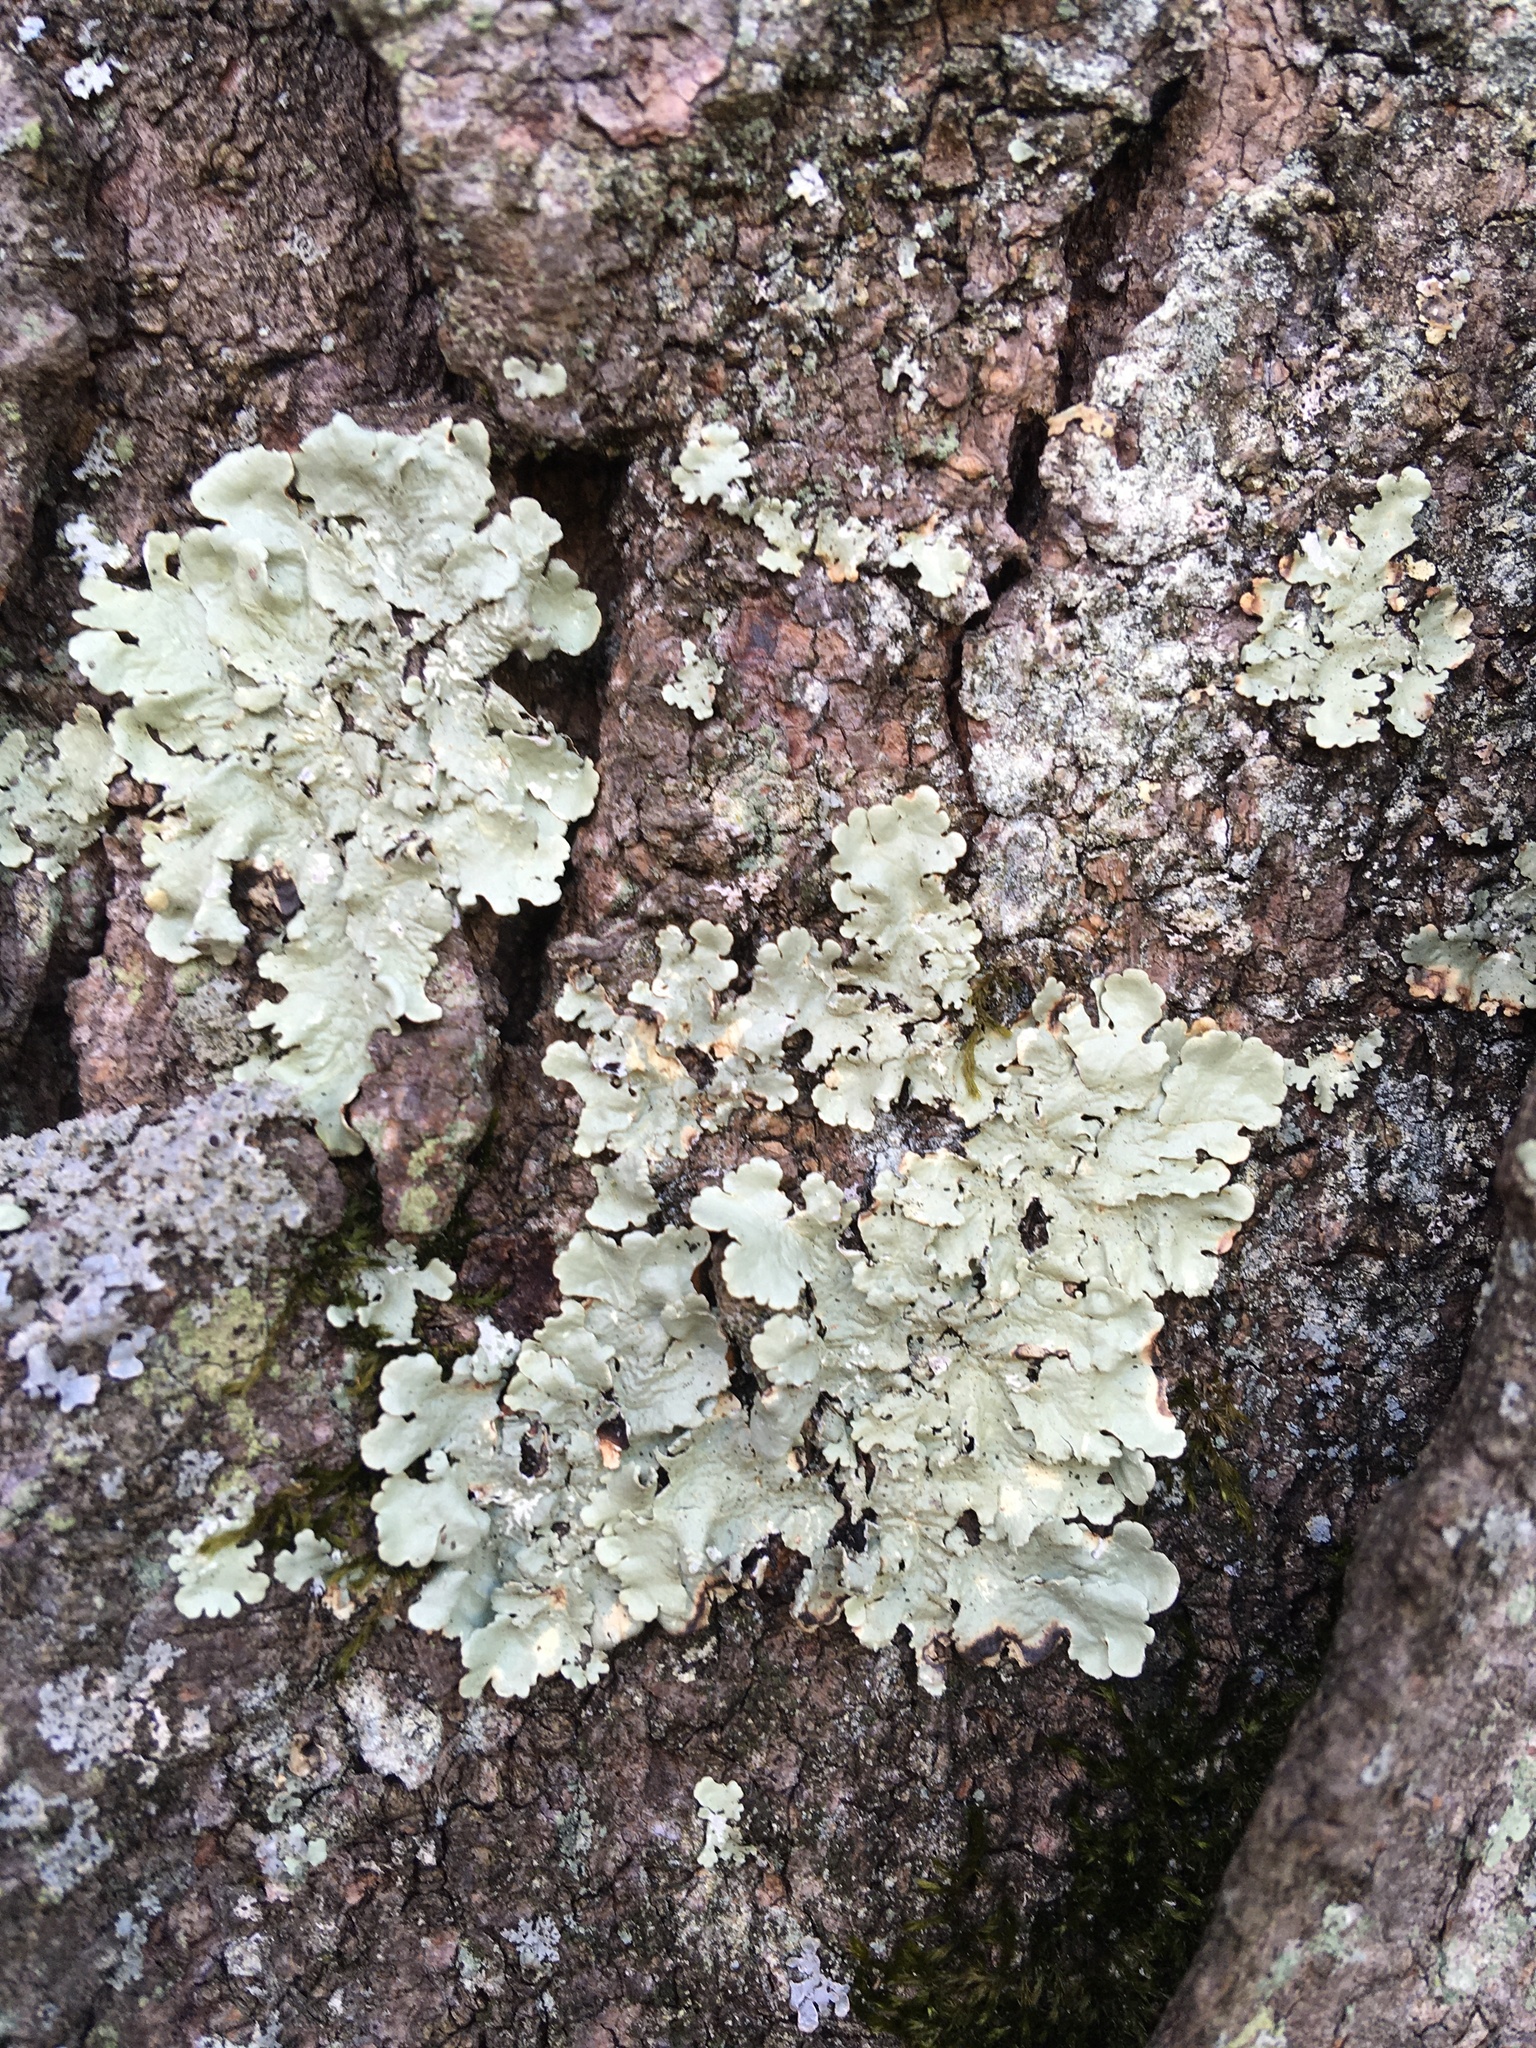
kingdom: Fungi
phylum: Ascomycota
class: Lecanoromycetes
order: Lecanorales
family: Parmeliaceae
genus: Flavoparmelia
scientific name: Flavoparmelia caperata
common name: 40-mile per hour lichen
